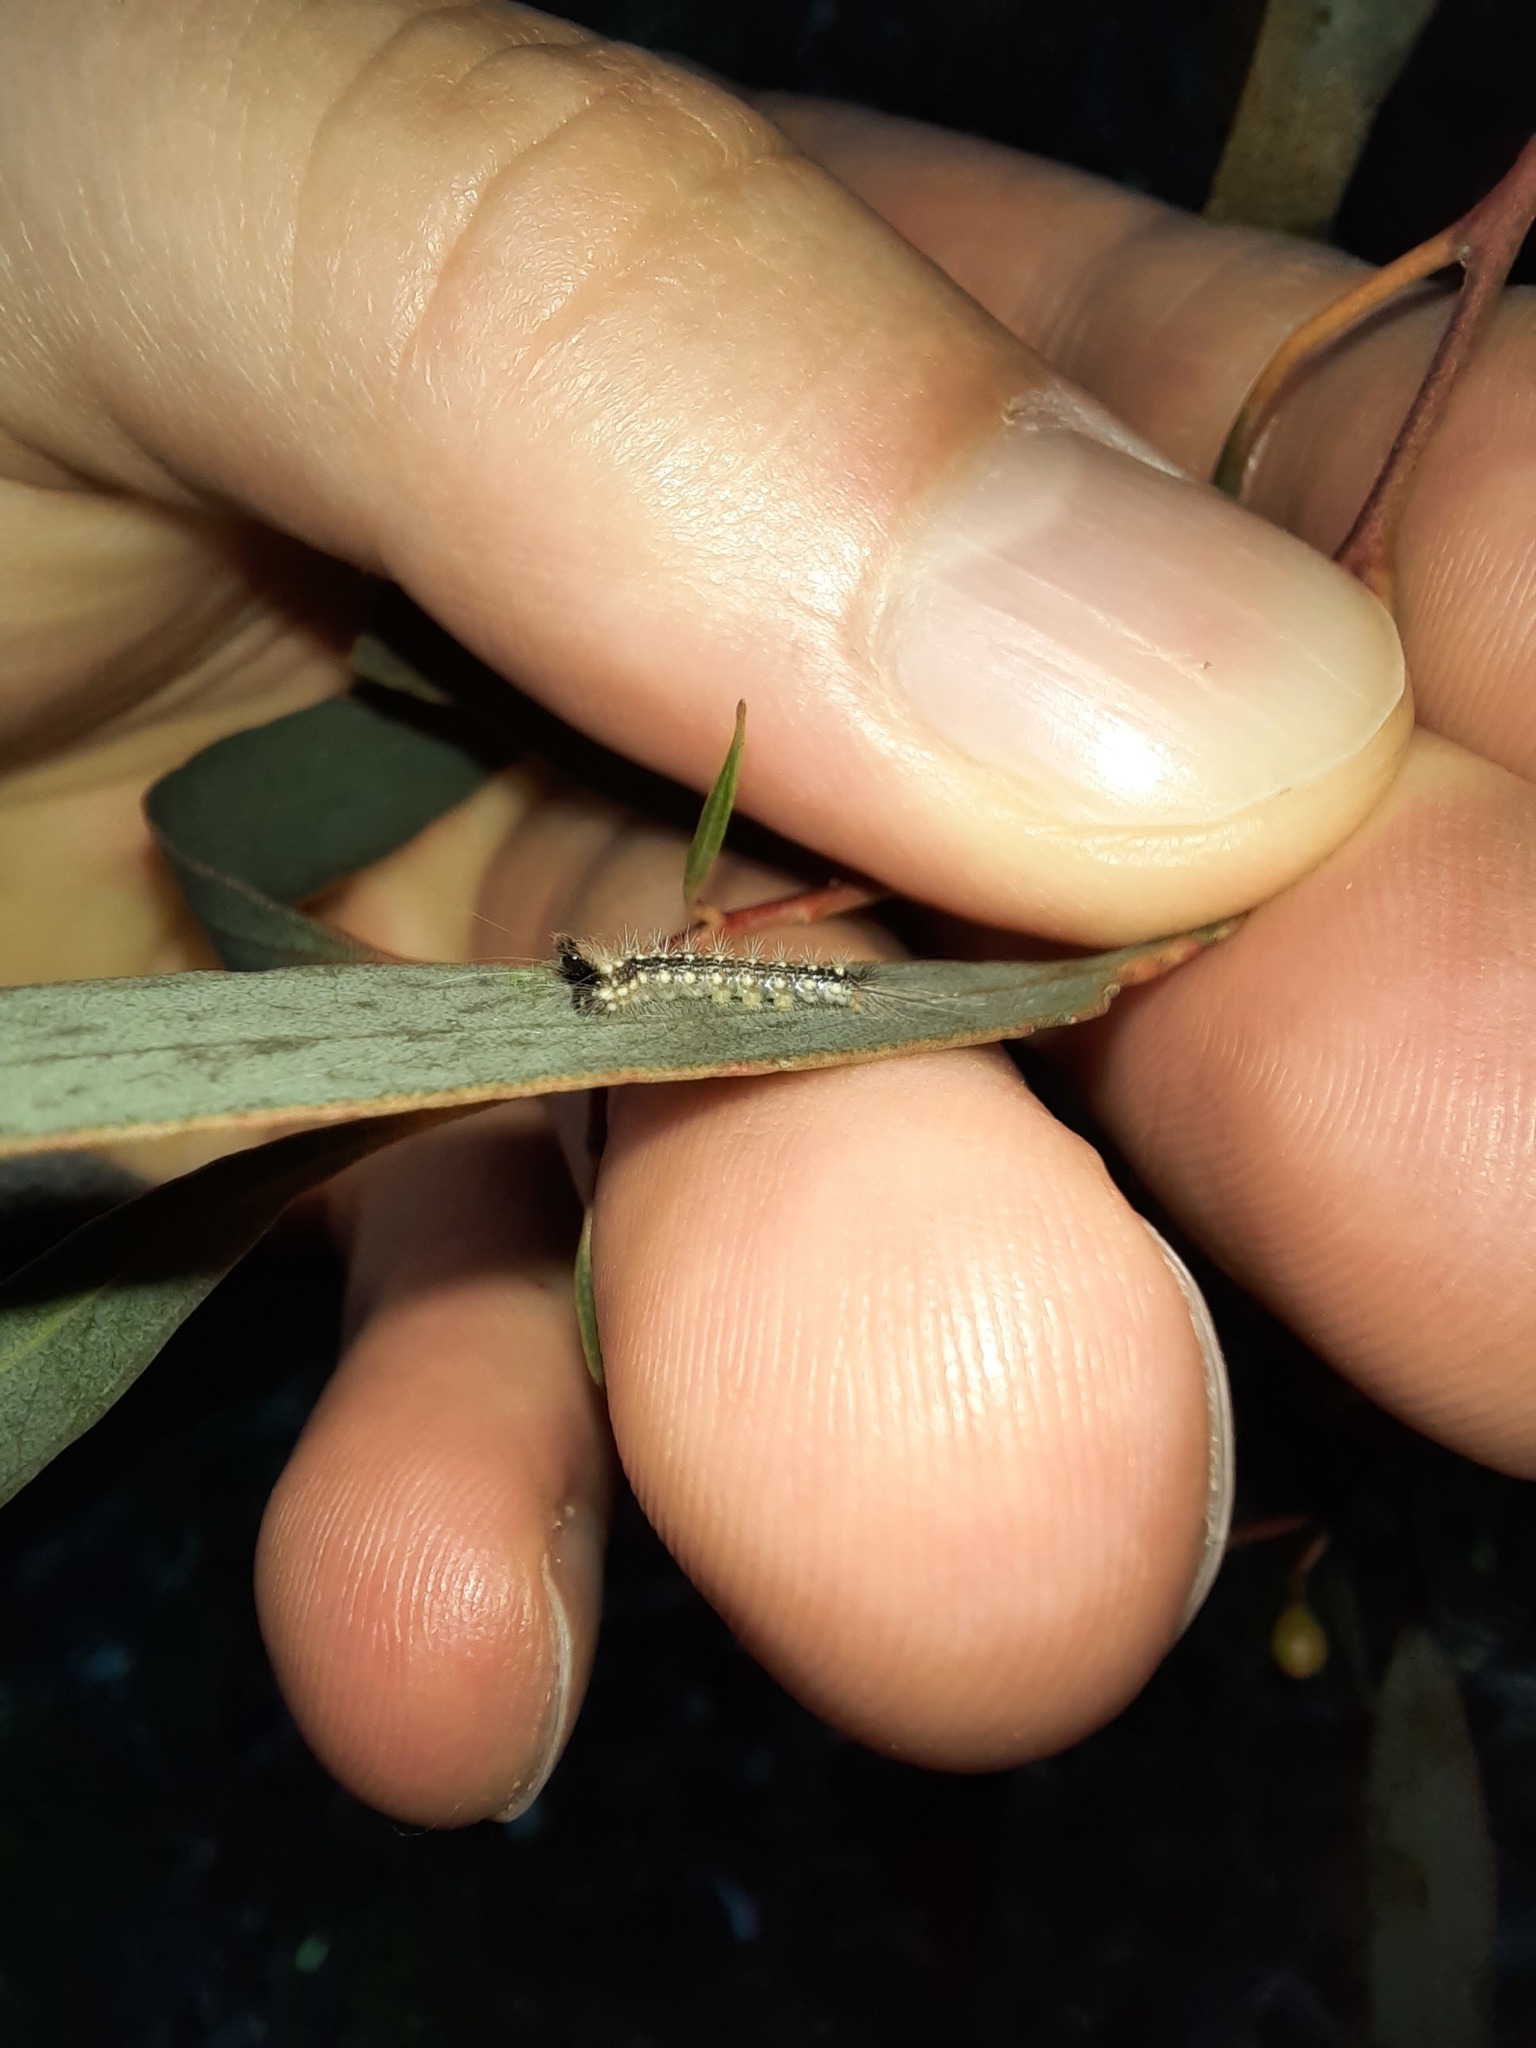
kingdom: Animalia
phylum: Arthropoda
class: Insecta
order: Lepidoptera
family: Nolidae
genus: Uraba
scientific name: Uraba lugens
